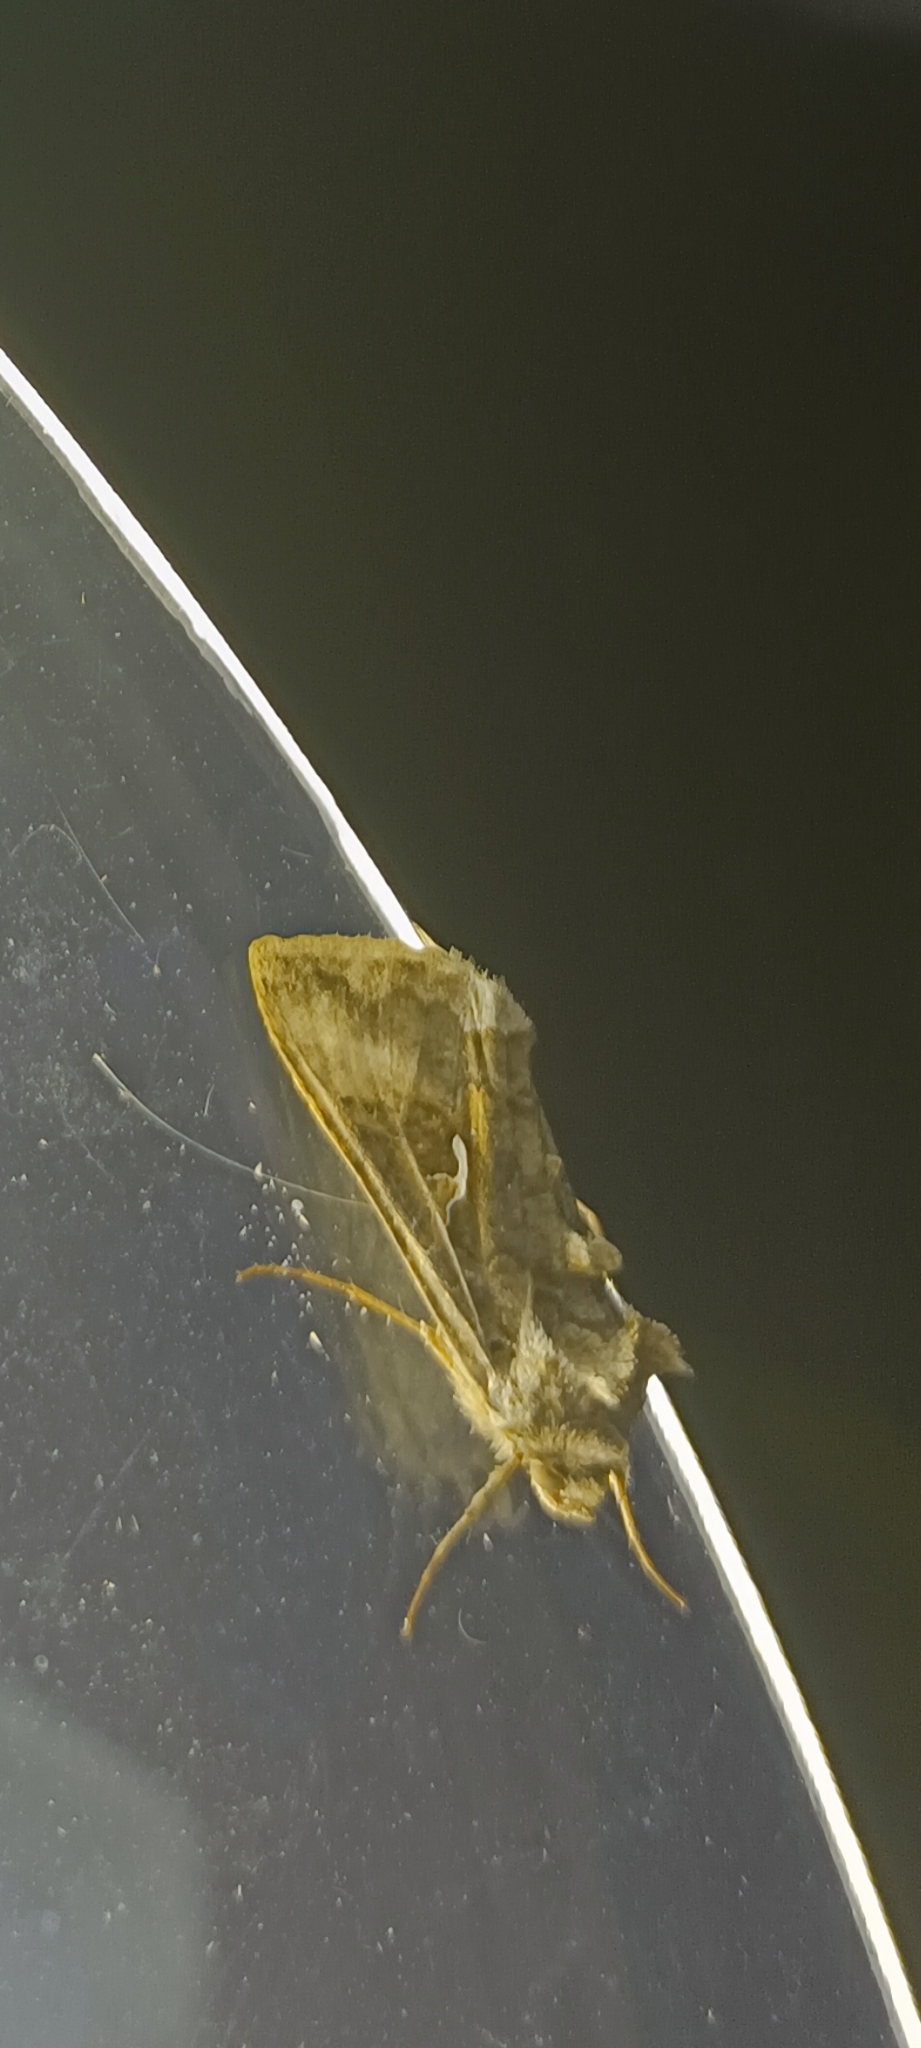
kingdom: Animalia
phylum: Arthropoda
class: Insecta
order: Lepidoptera
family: Noctuidae
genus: Autographa
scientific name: Autographa gamma
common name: Silver y
